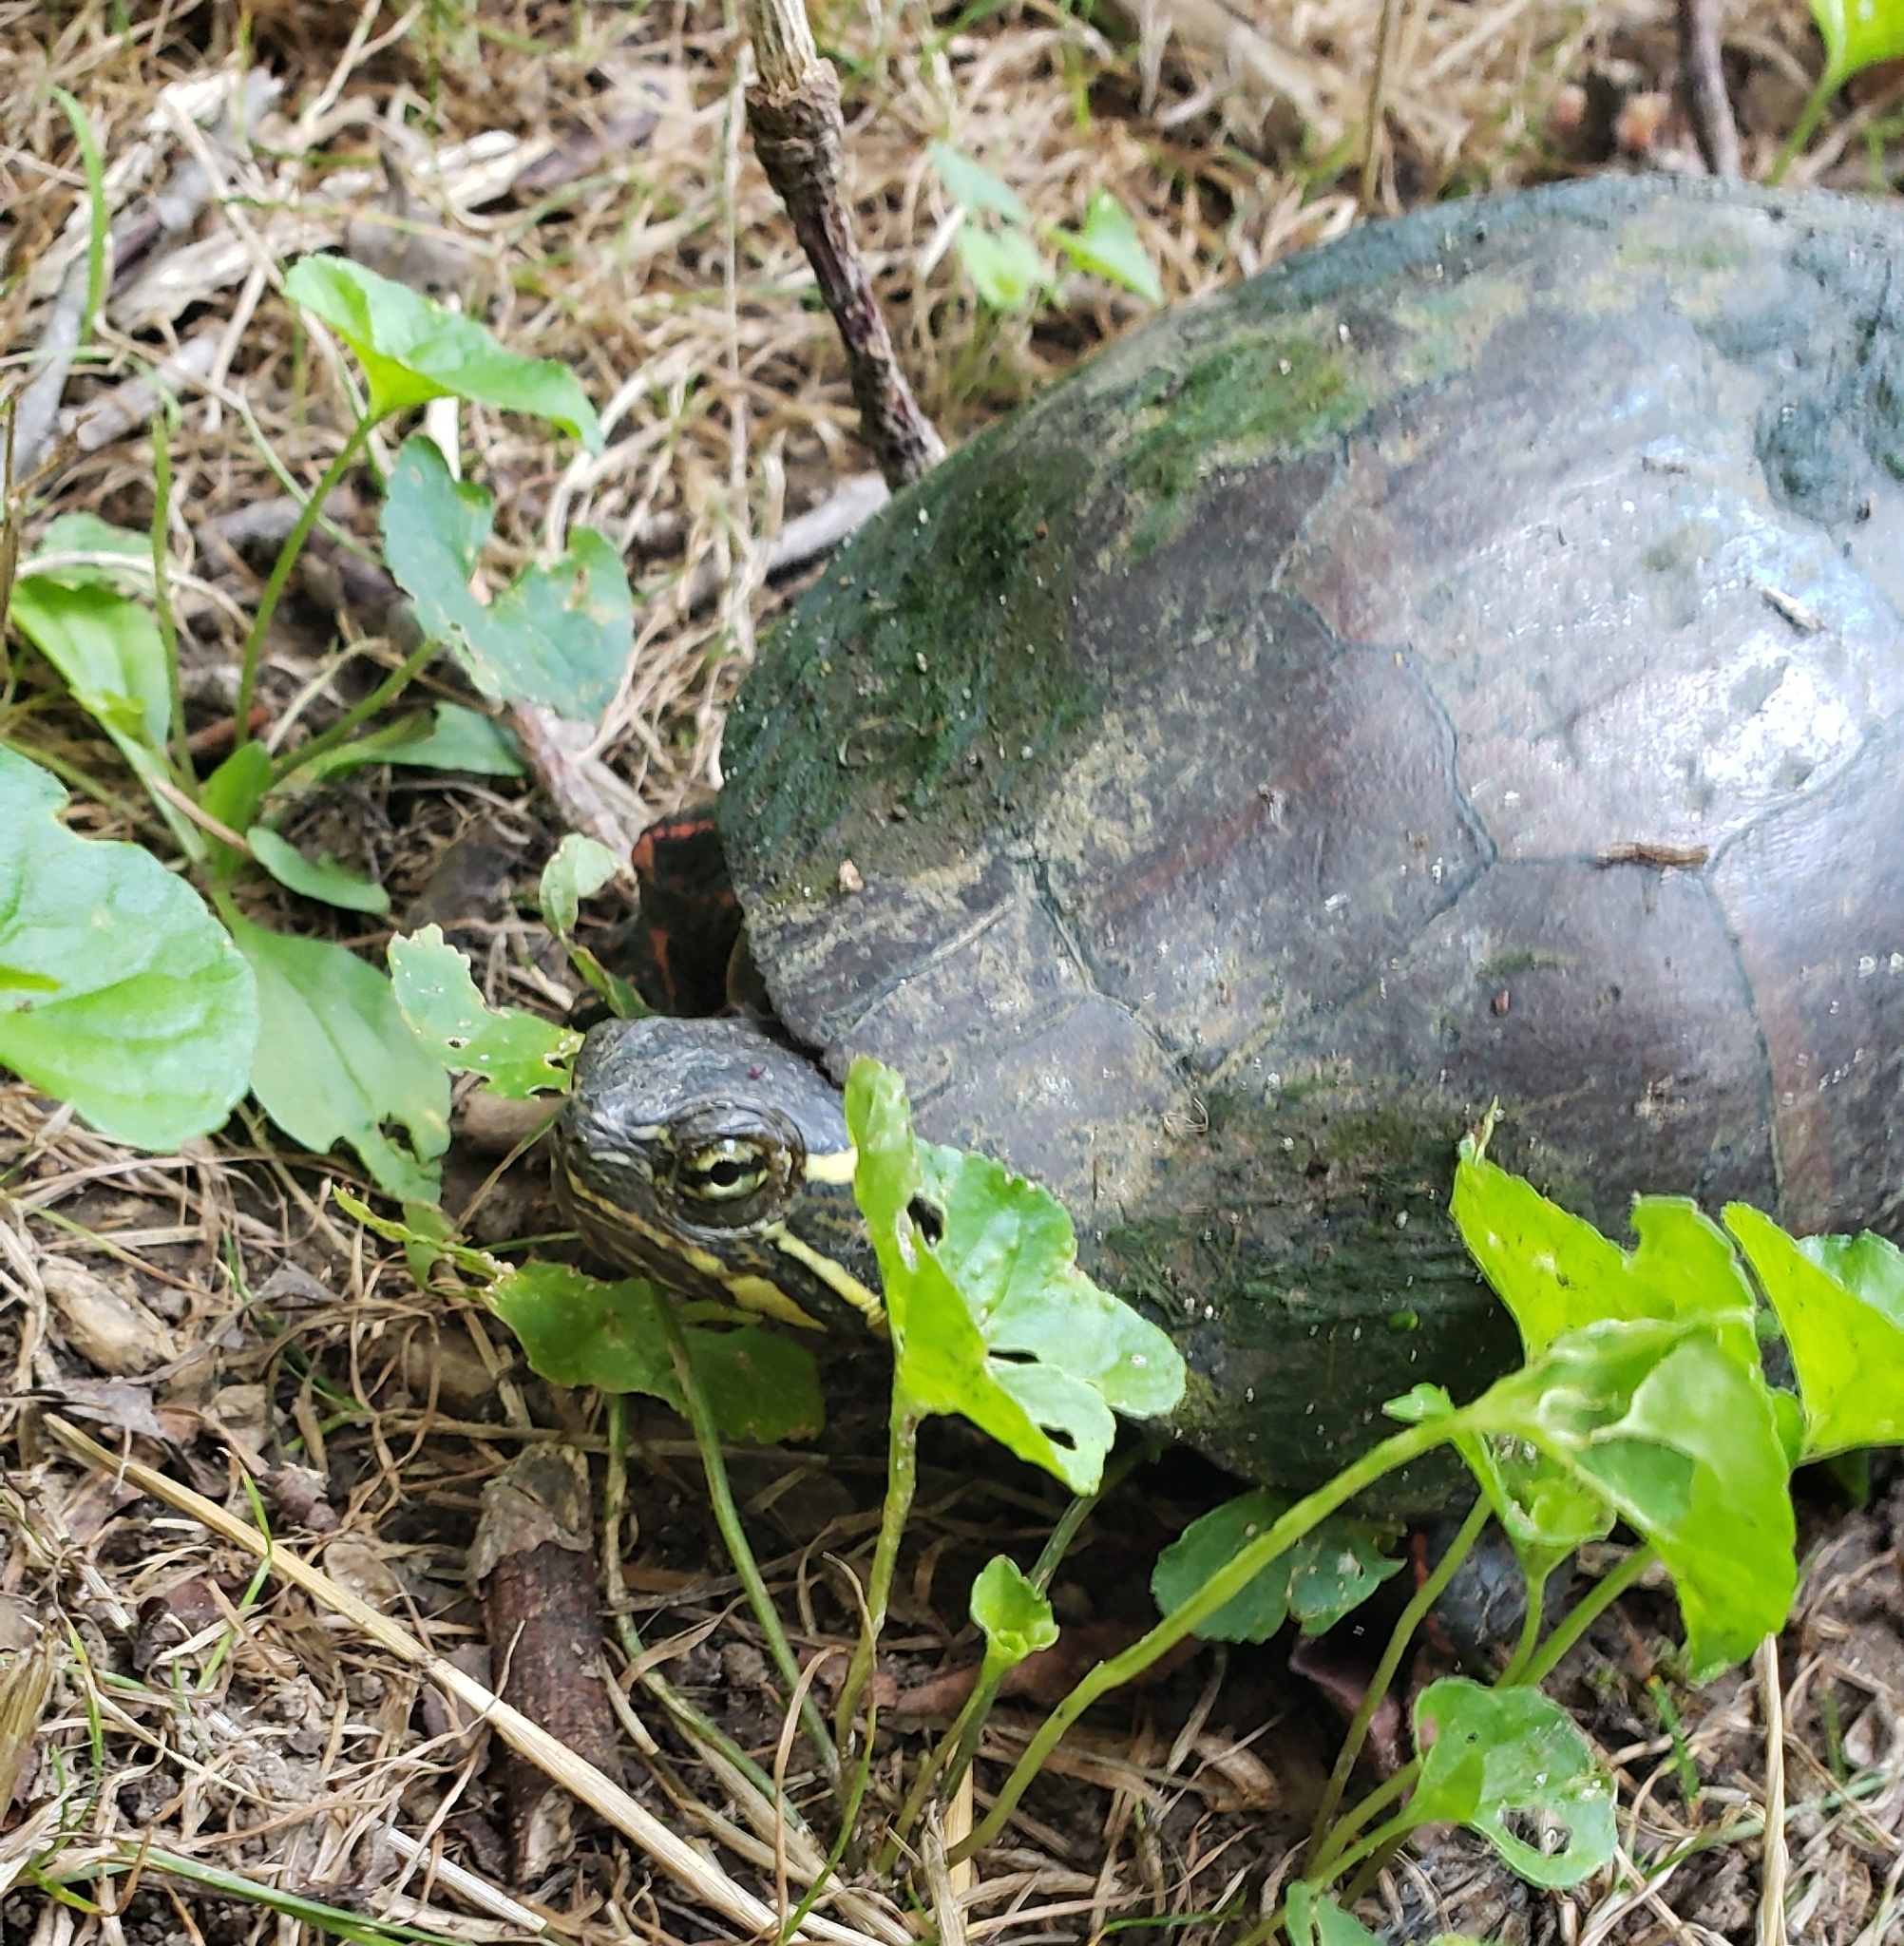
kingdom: Animalia
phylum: Chordata
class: Testudines
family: Emydidae
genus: Chrysemys
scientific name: Chrysemys picta
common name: Painted turtle
